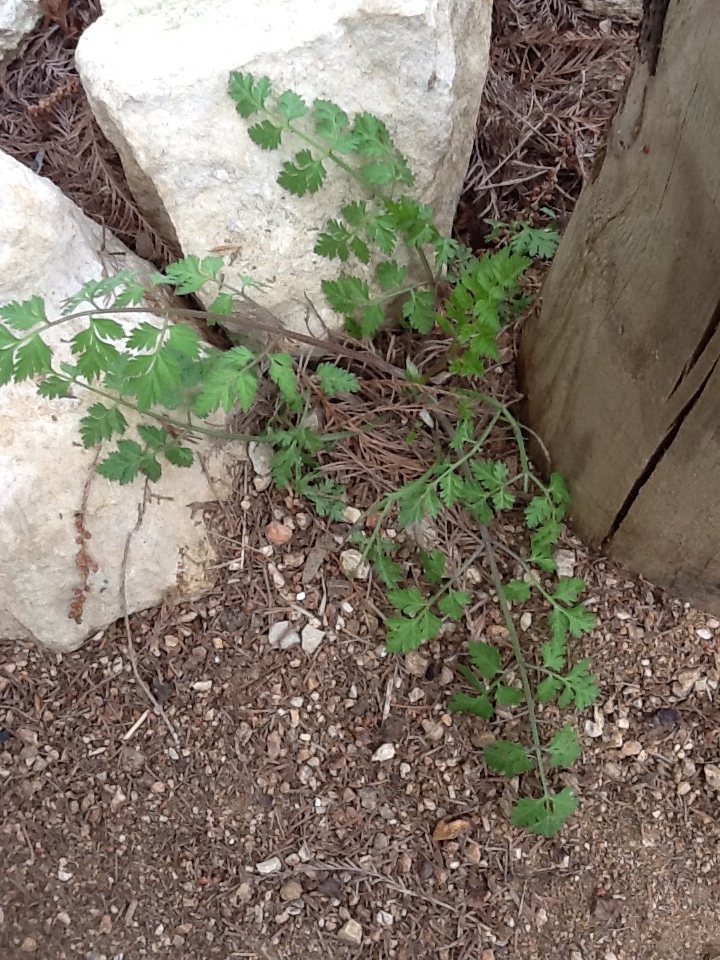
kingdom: Plantae
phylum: Tracheophyta
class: Magnoliopsida
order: Ranunculales
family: Papaveraceae
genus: Fumaria
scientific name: Fumaria
